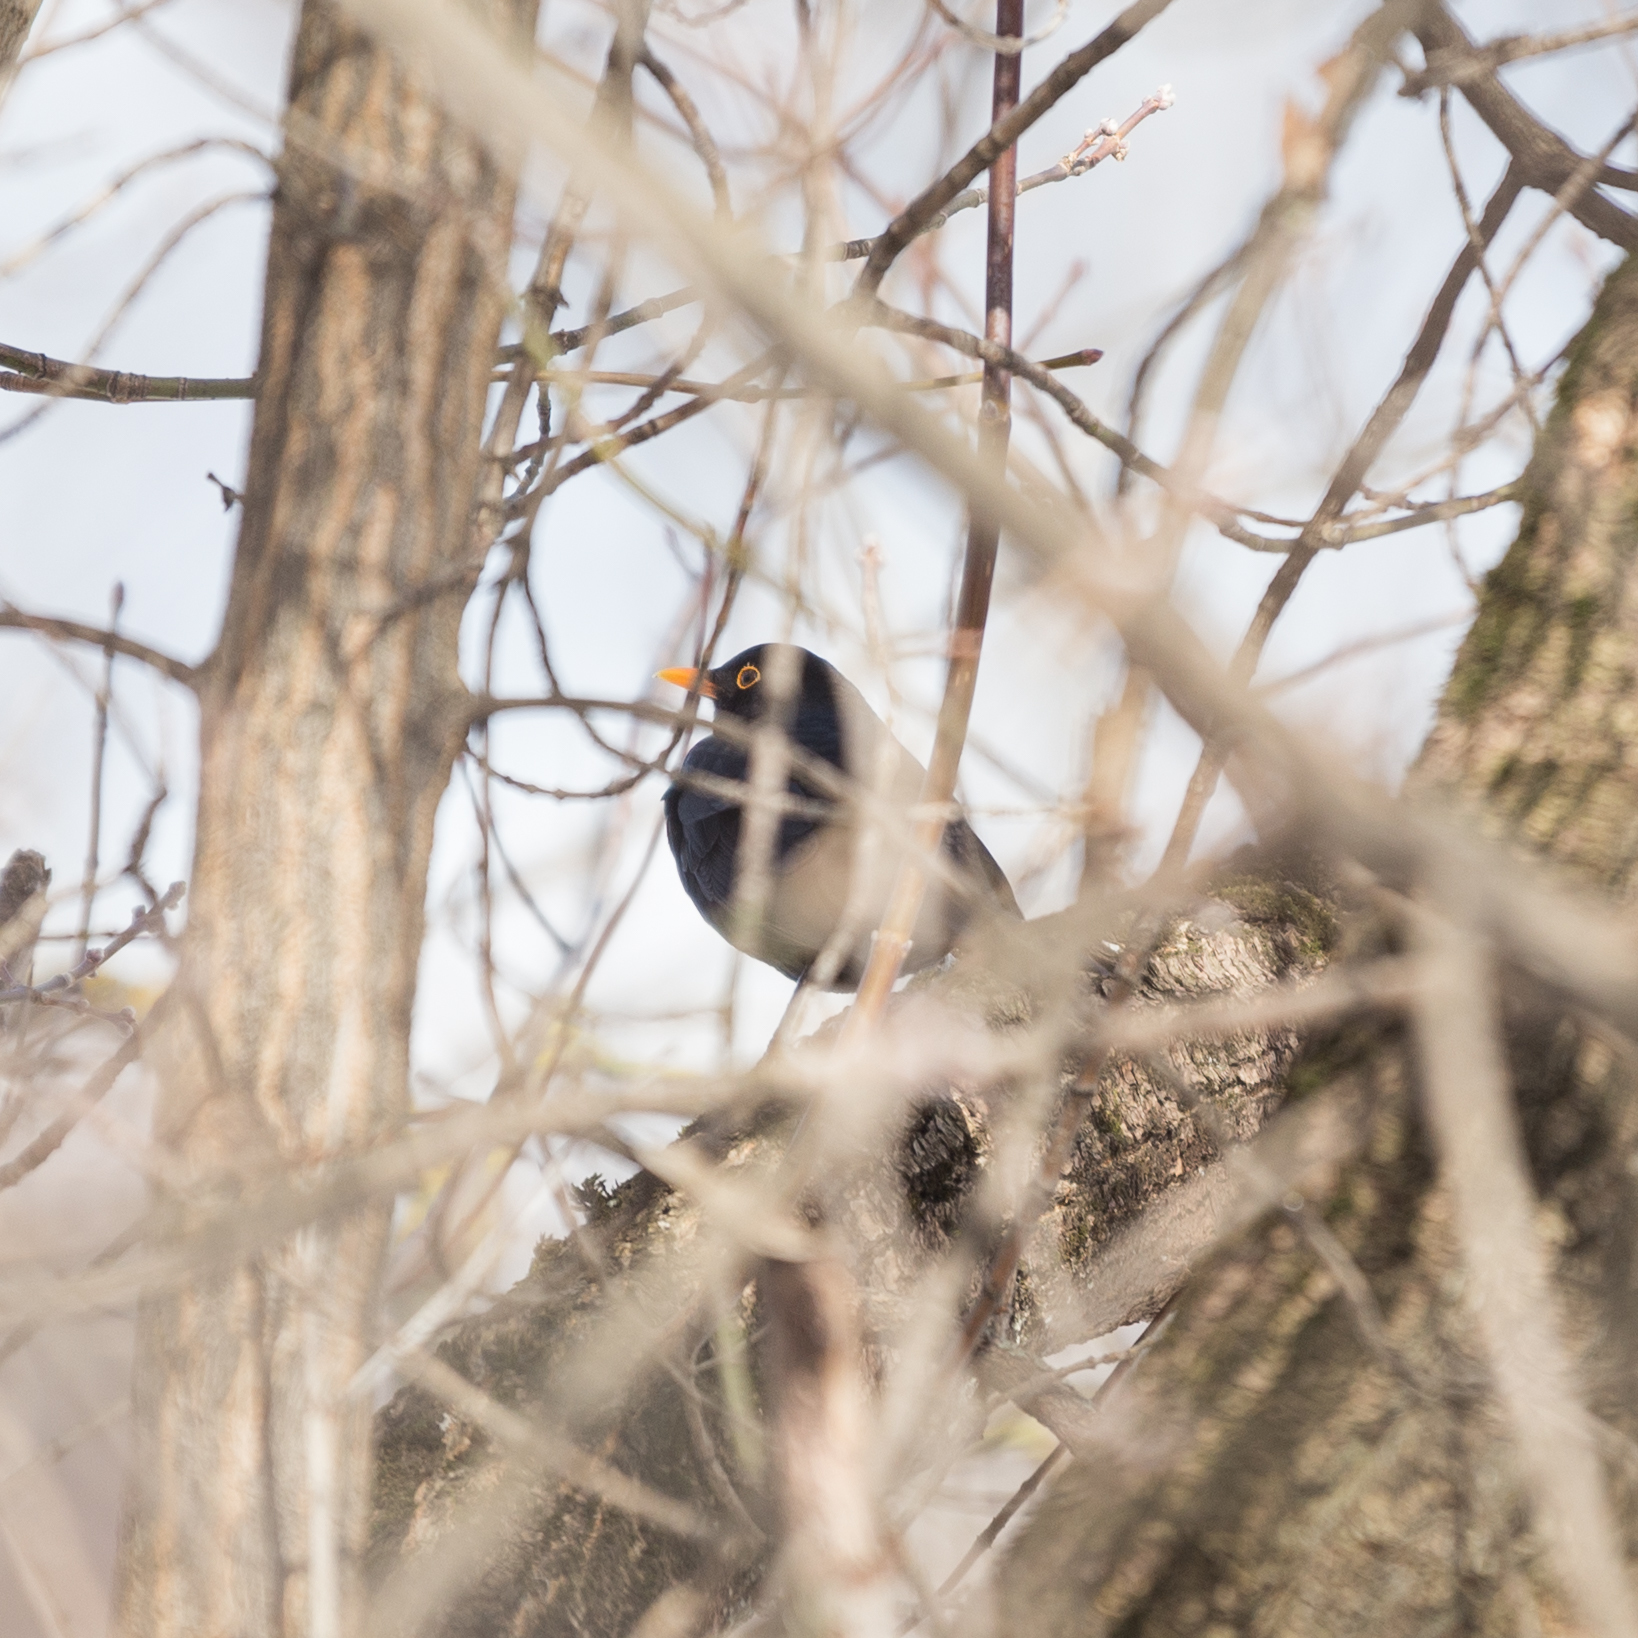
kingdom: Animalia
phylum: Chordata
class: Aves
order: Passeriformes
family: Turdidae
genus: Turdus
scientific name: Turdus merula
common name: Common blackbird
